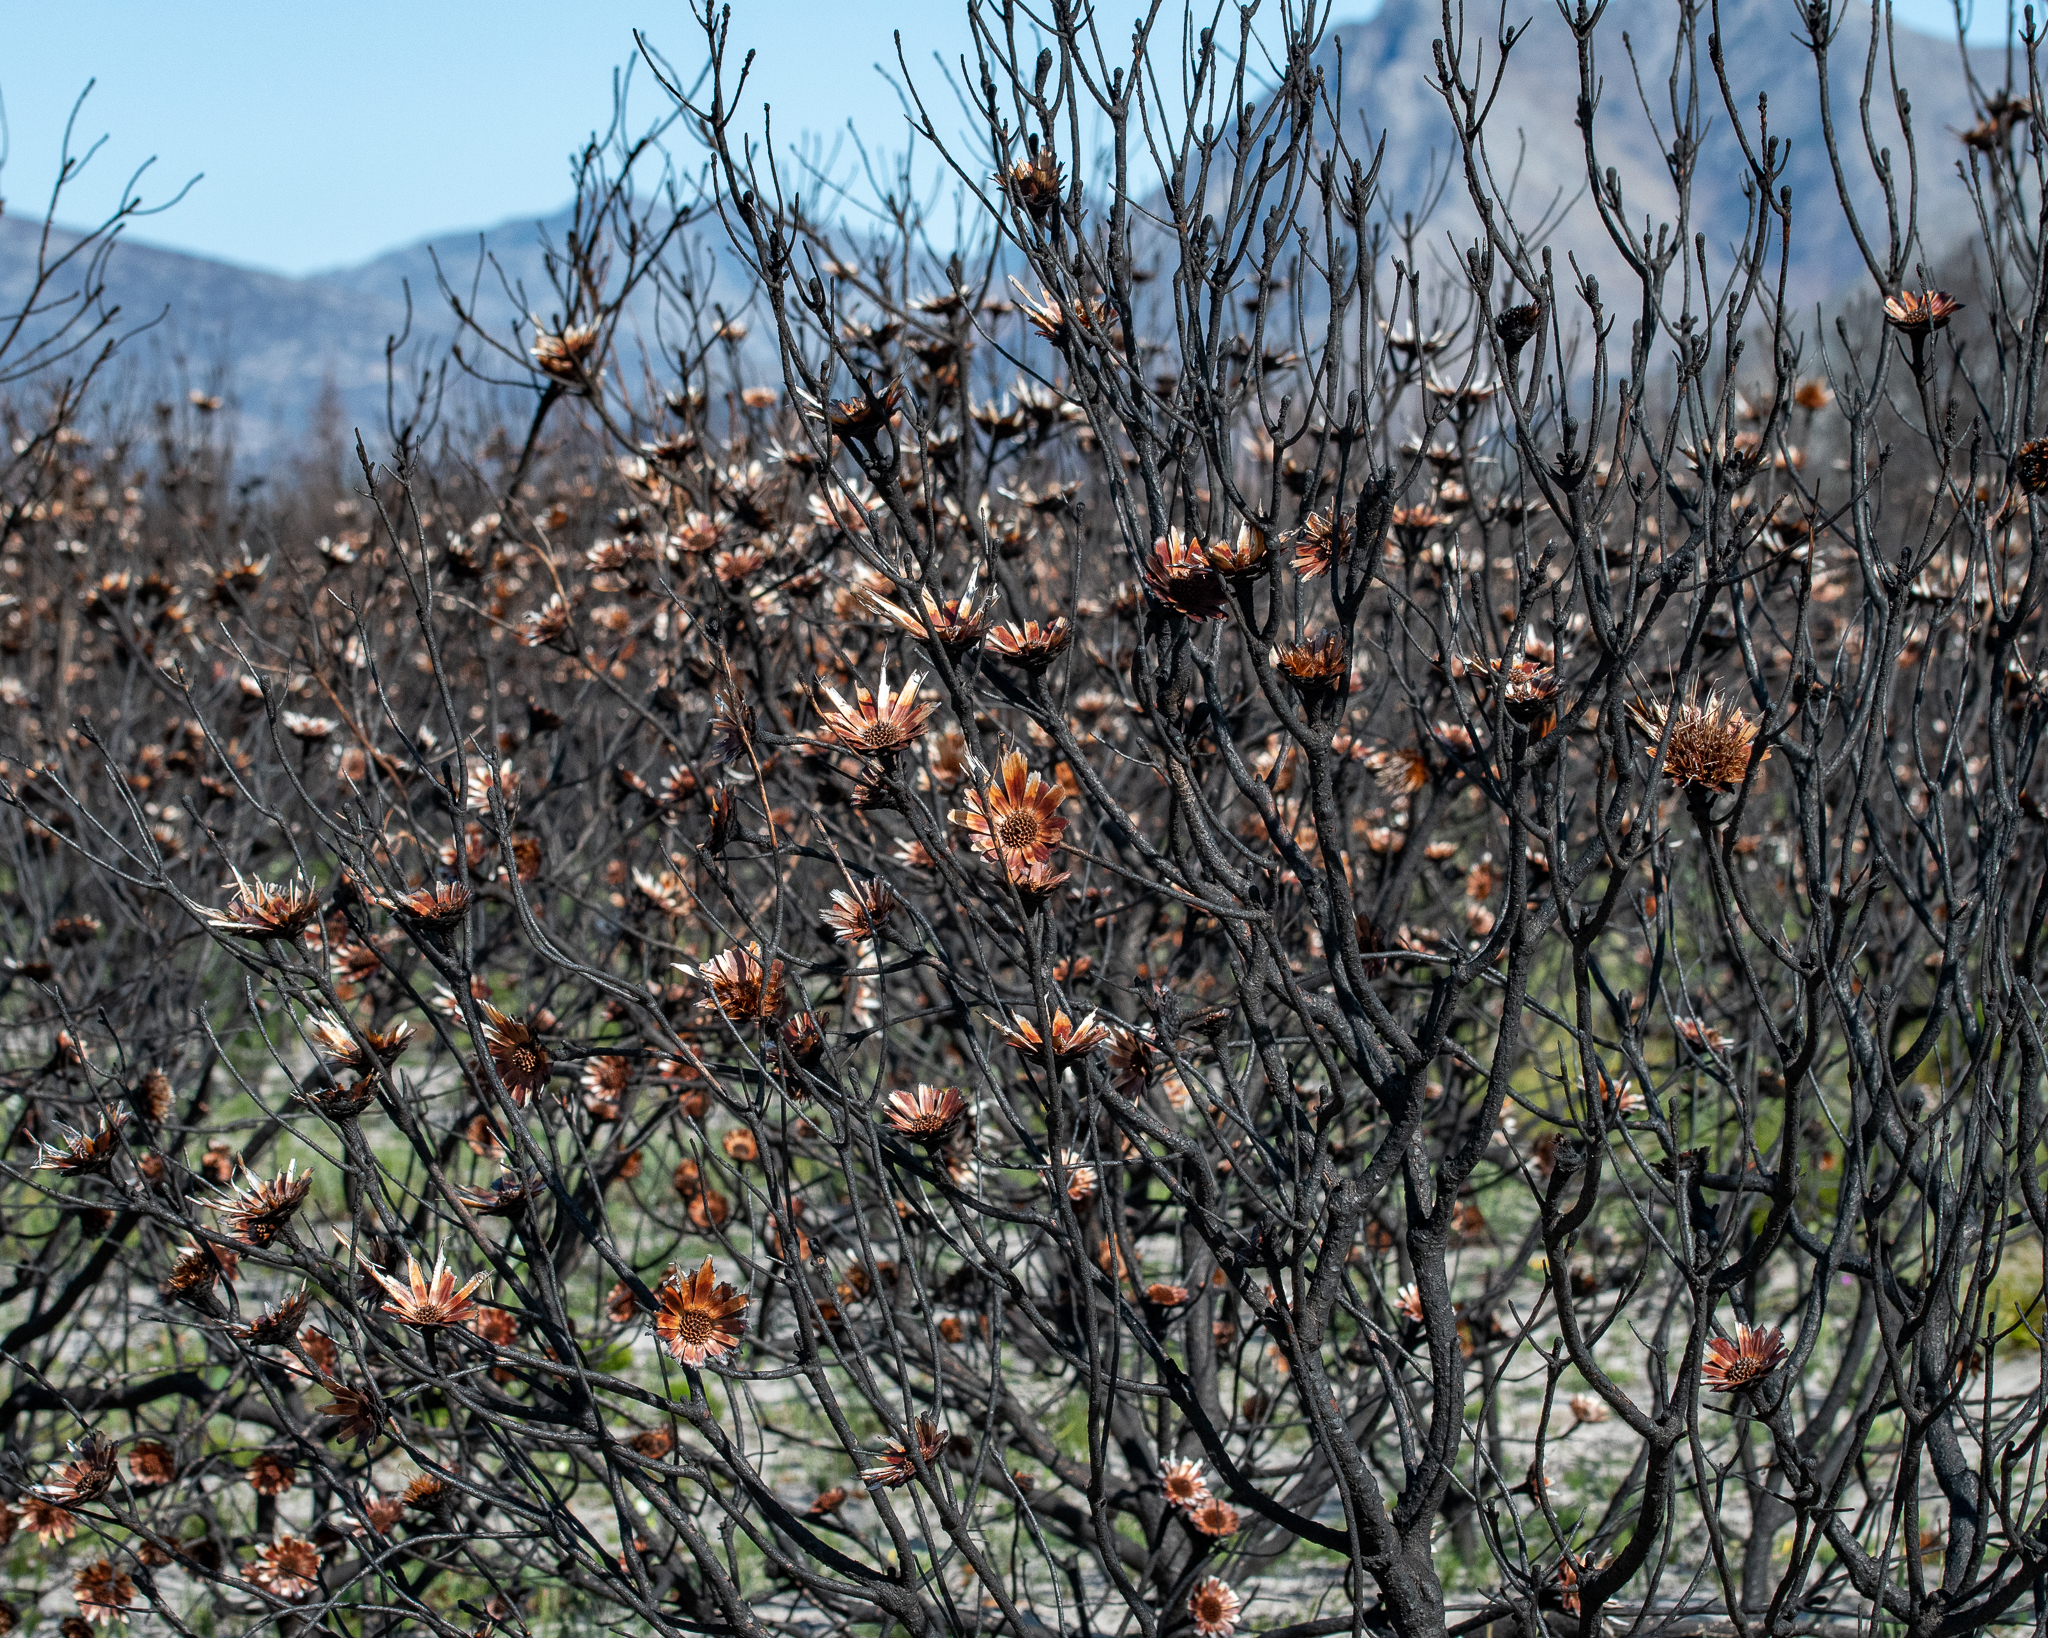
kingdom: Plantae
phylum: Tracheophyta
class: Magnoliopsida
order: Proteales
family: Proteaceae
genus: Protea
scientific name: Protea repens
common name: Sugarbush
